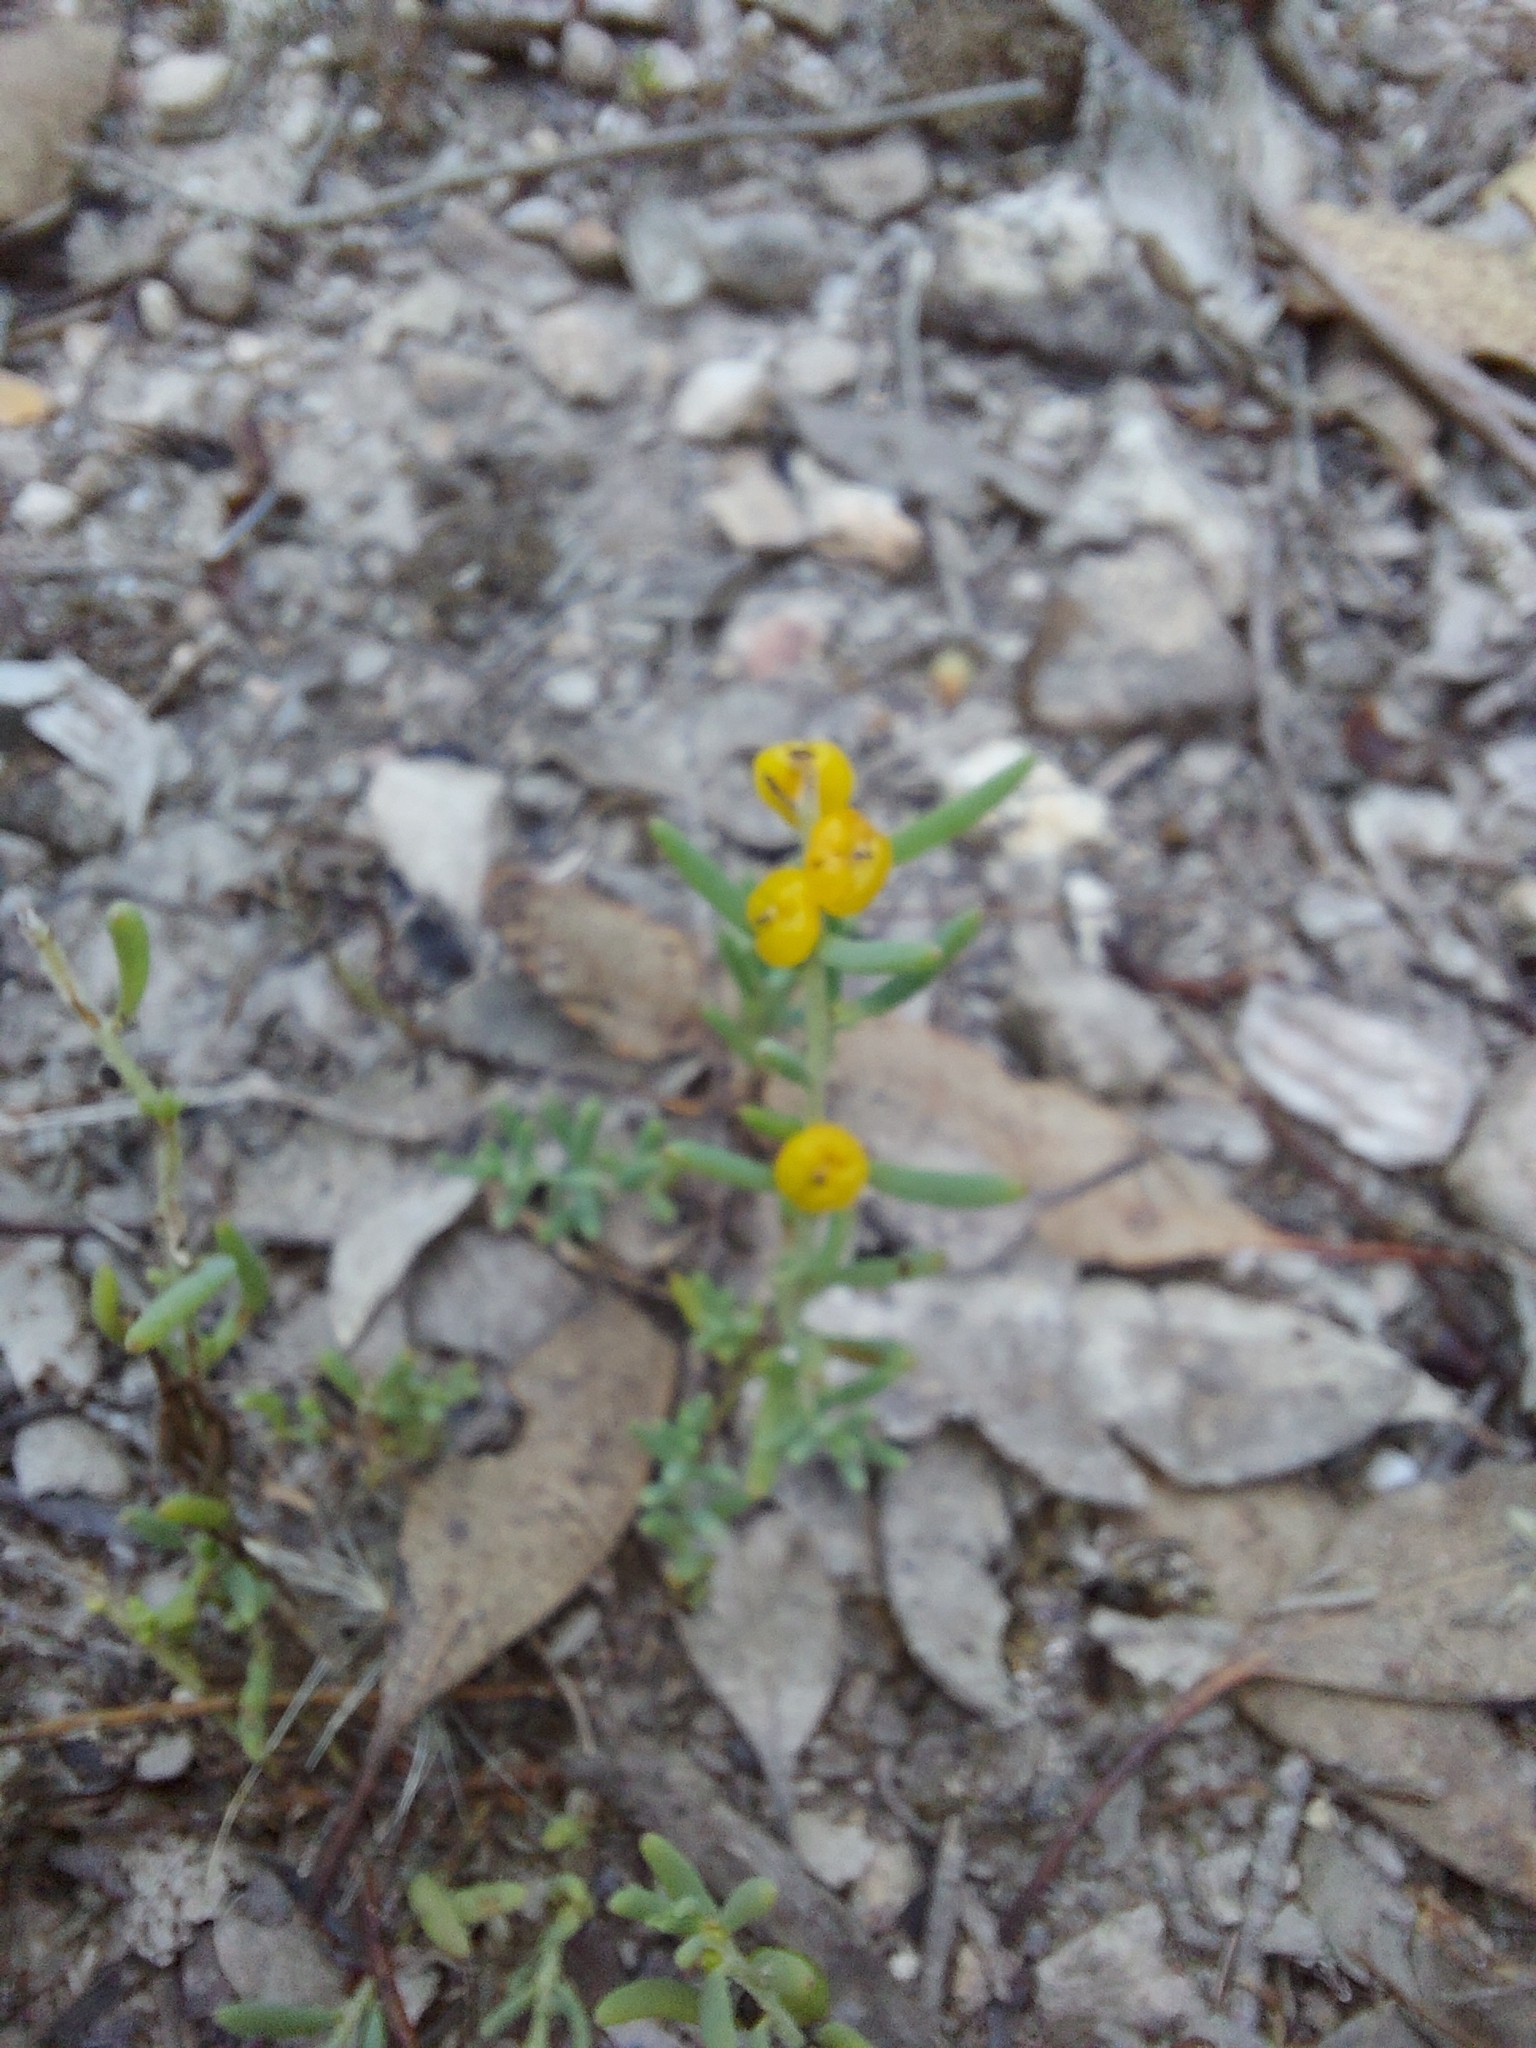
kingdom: Plantae
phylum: Tracheophyta
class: Magnoliopsida
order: Caryophyllales
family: Amaranthaceae
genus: Enchylaena
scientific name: Enchylaena tomentosa
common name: Ruby saltbush
